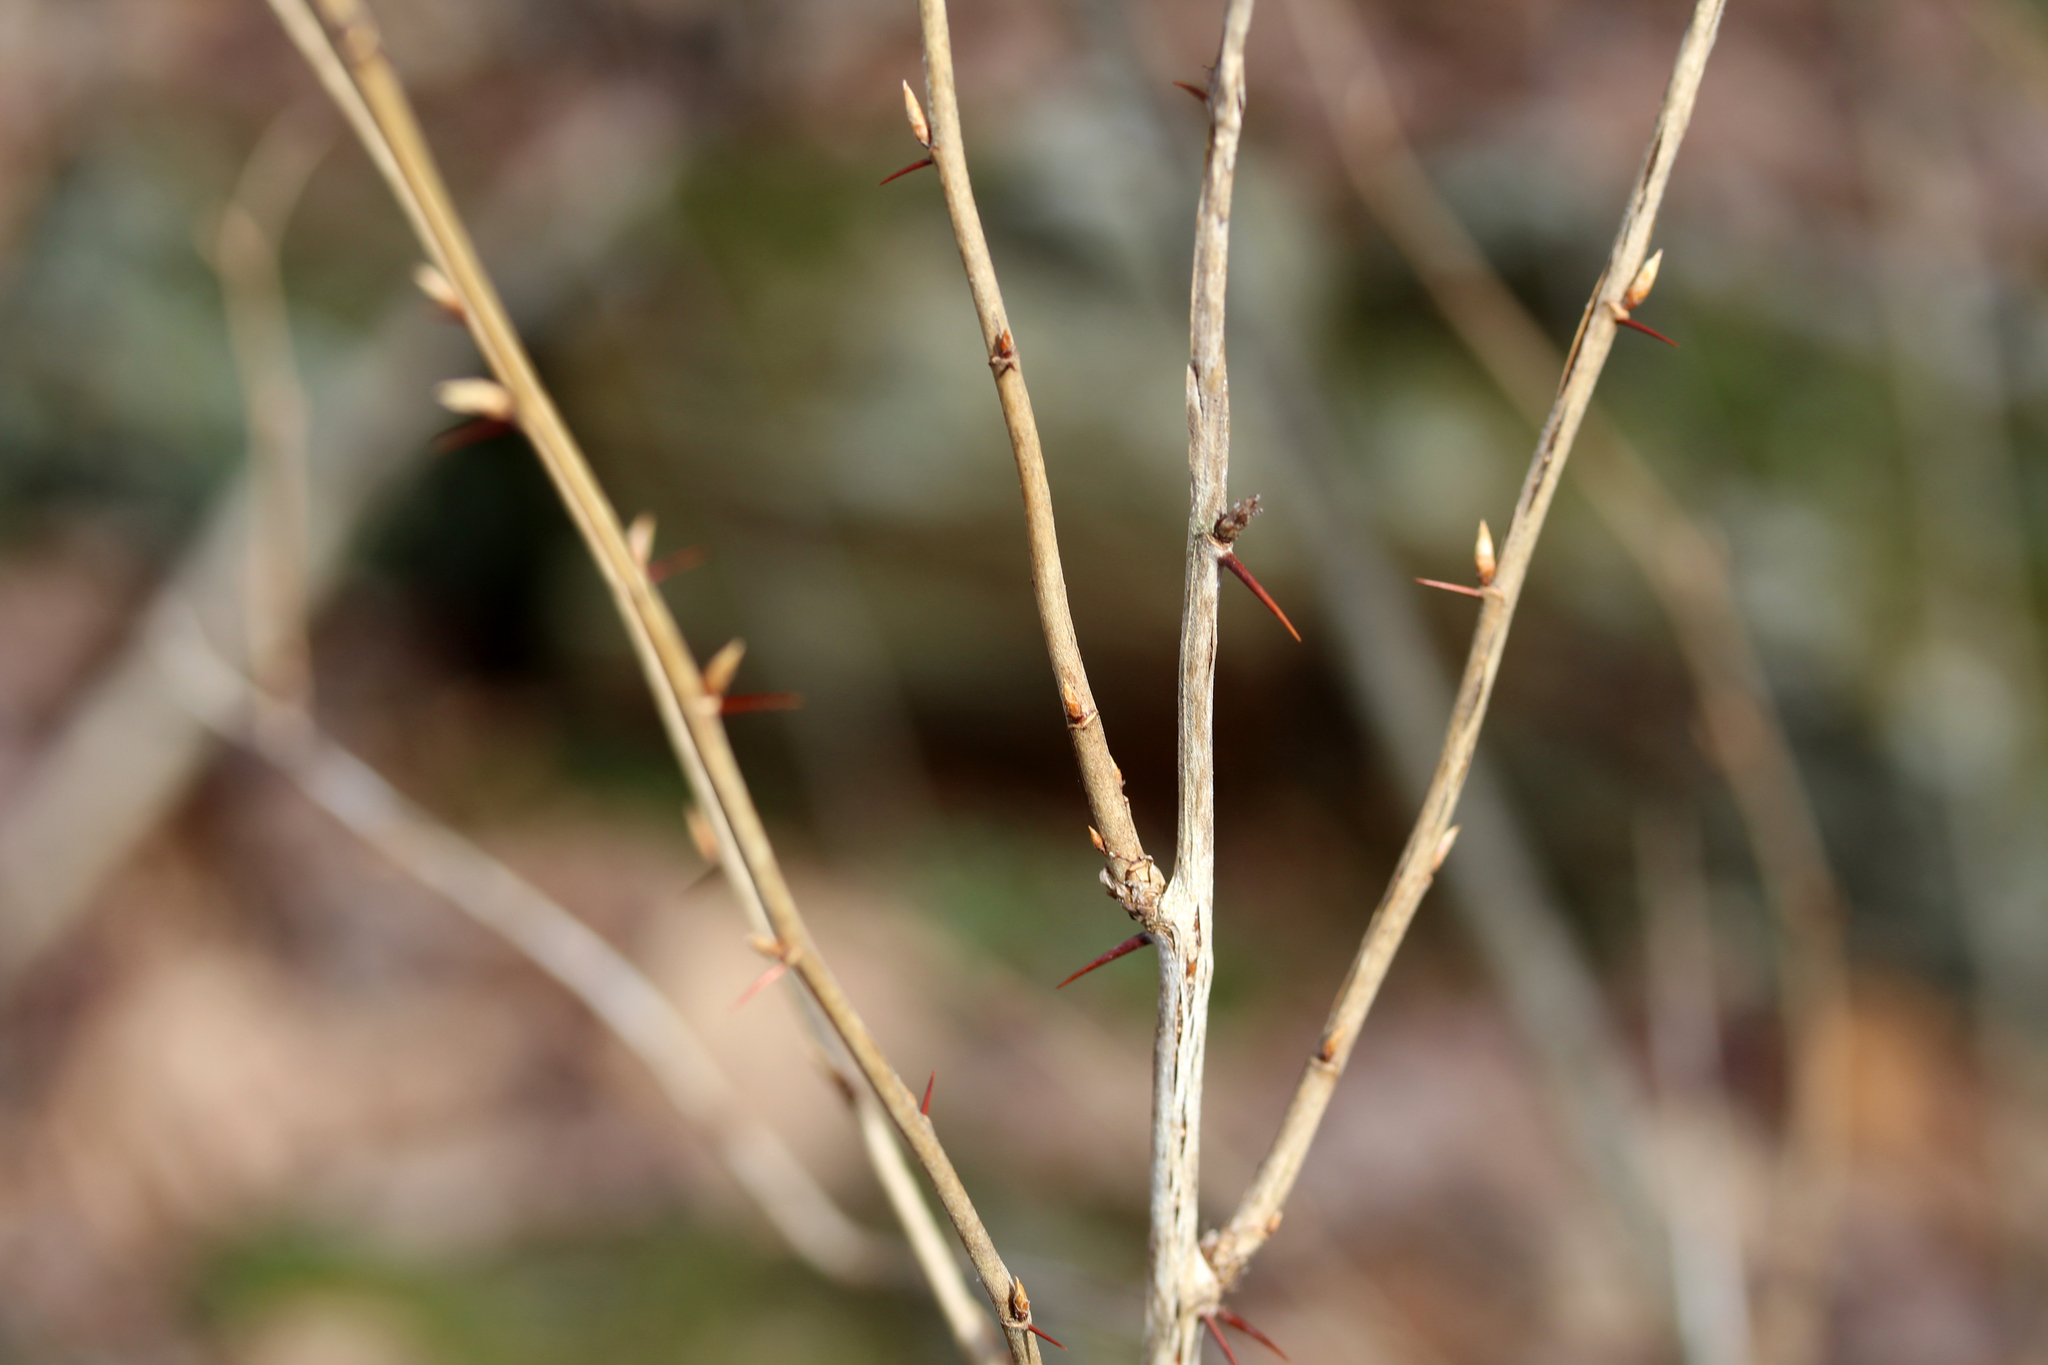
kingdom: Plantae
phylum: Tracheophyta
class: Magnoliopsida
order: Ranunculales
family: Berberidaceae
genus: Berberis
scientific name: Berberis thunbergii
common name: Japanese barberry
